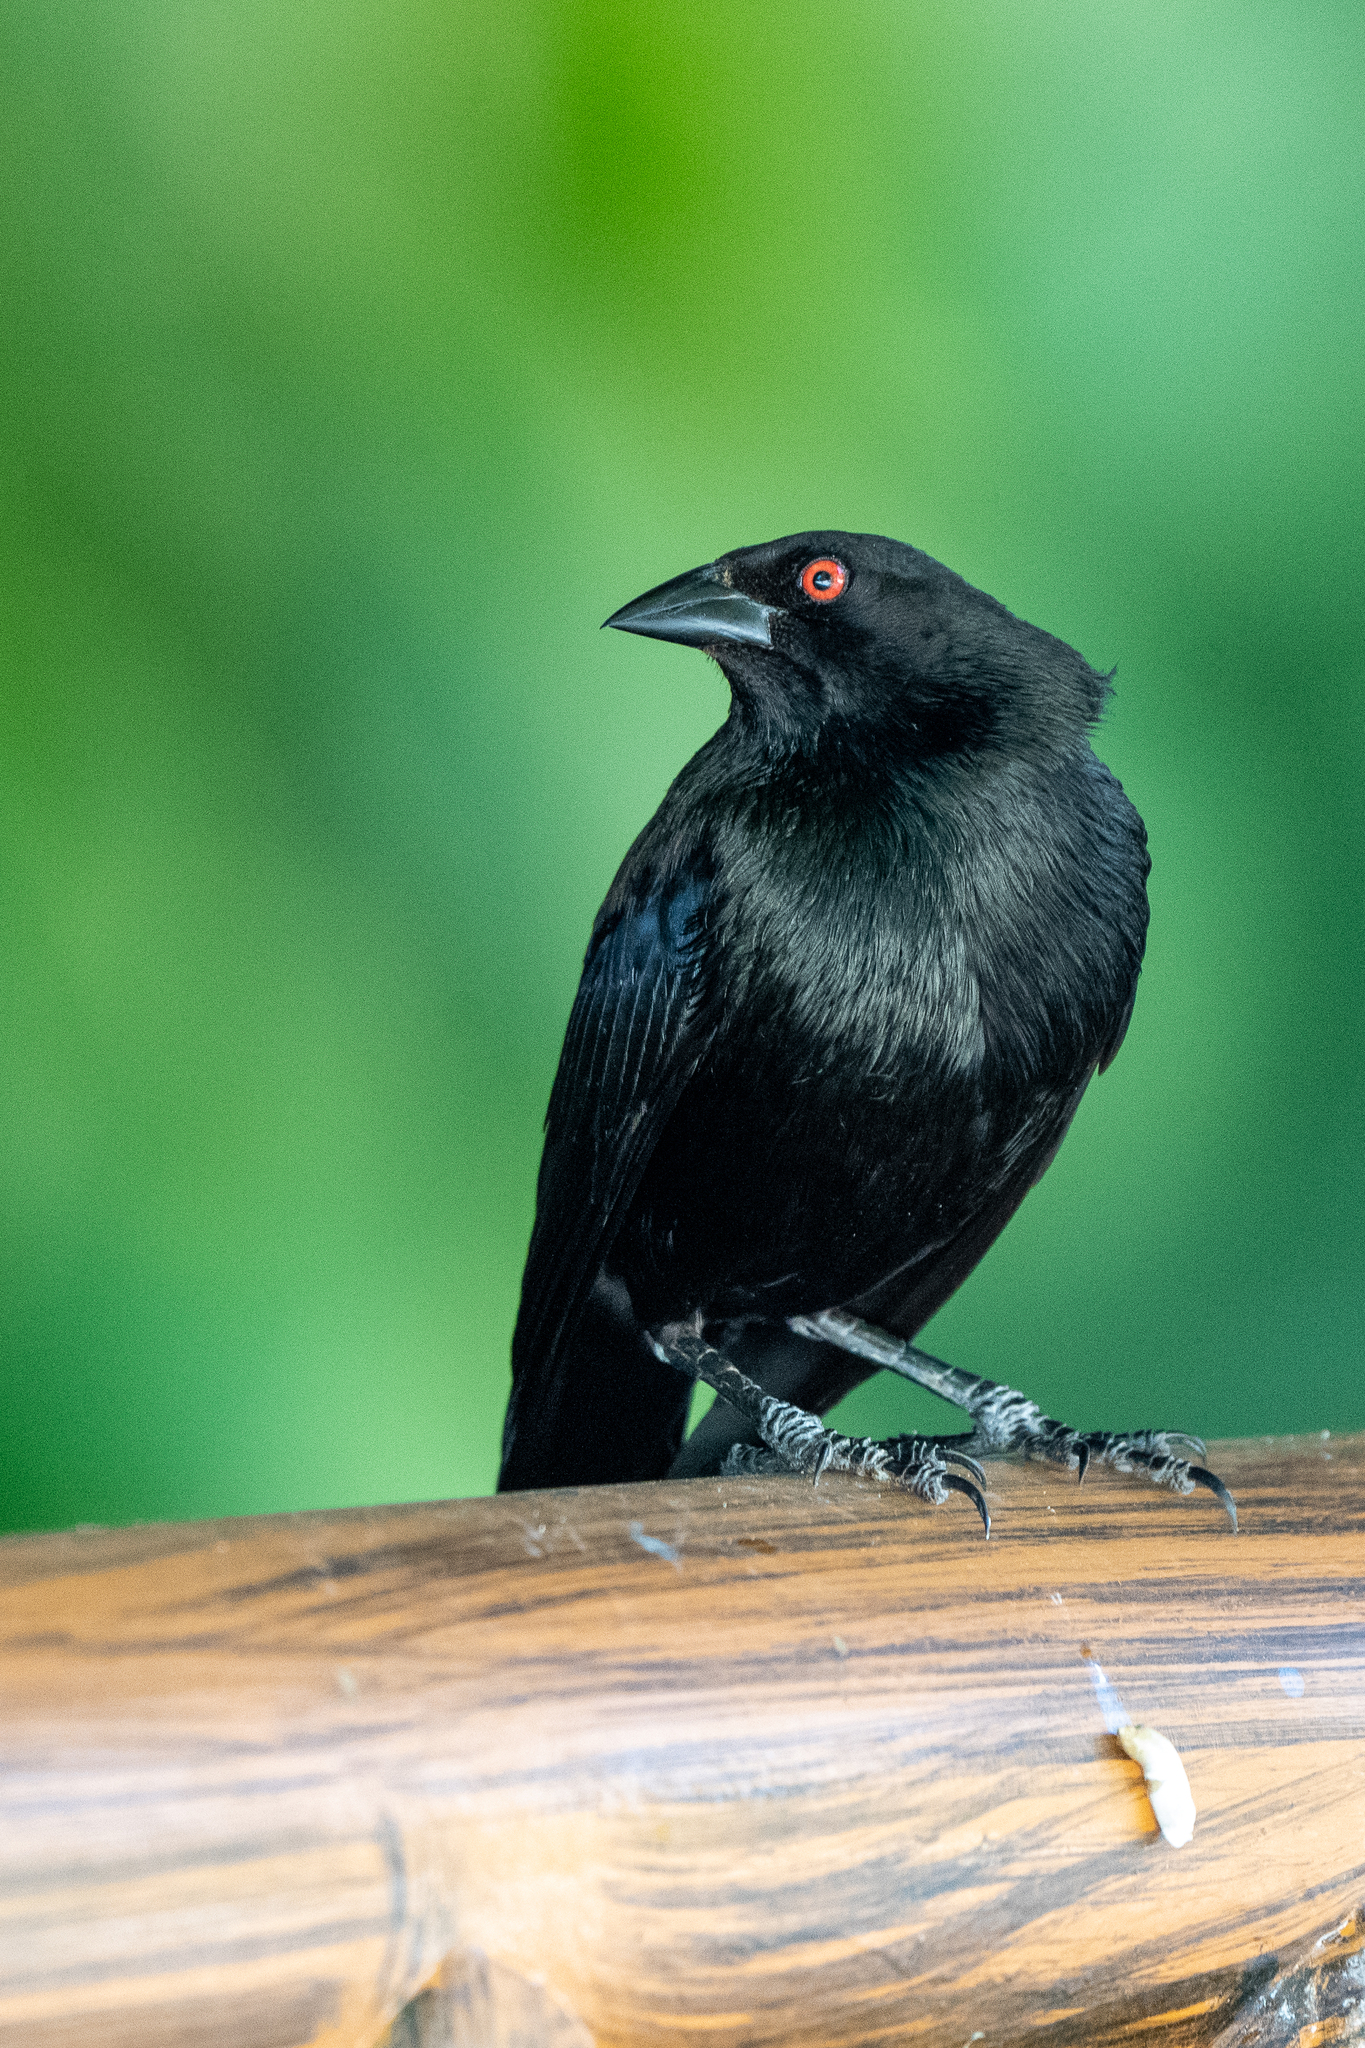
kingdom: Animalia
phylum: Chordata
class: Aves
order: Passeriformes
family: Icteridae
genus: Molothrus
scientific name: Molothrus aeneus
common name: Bronzed cowbird
